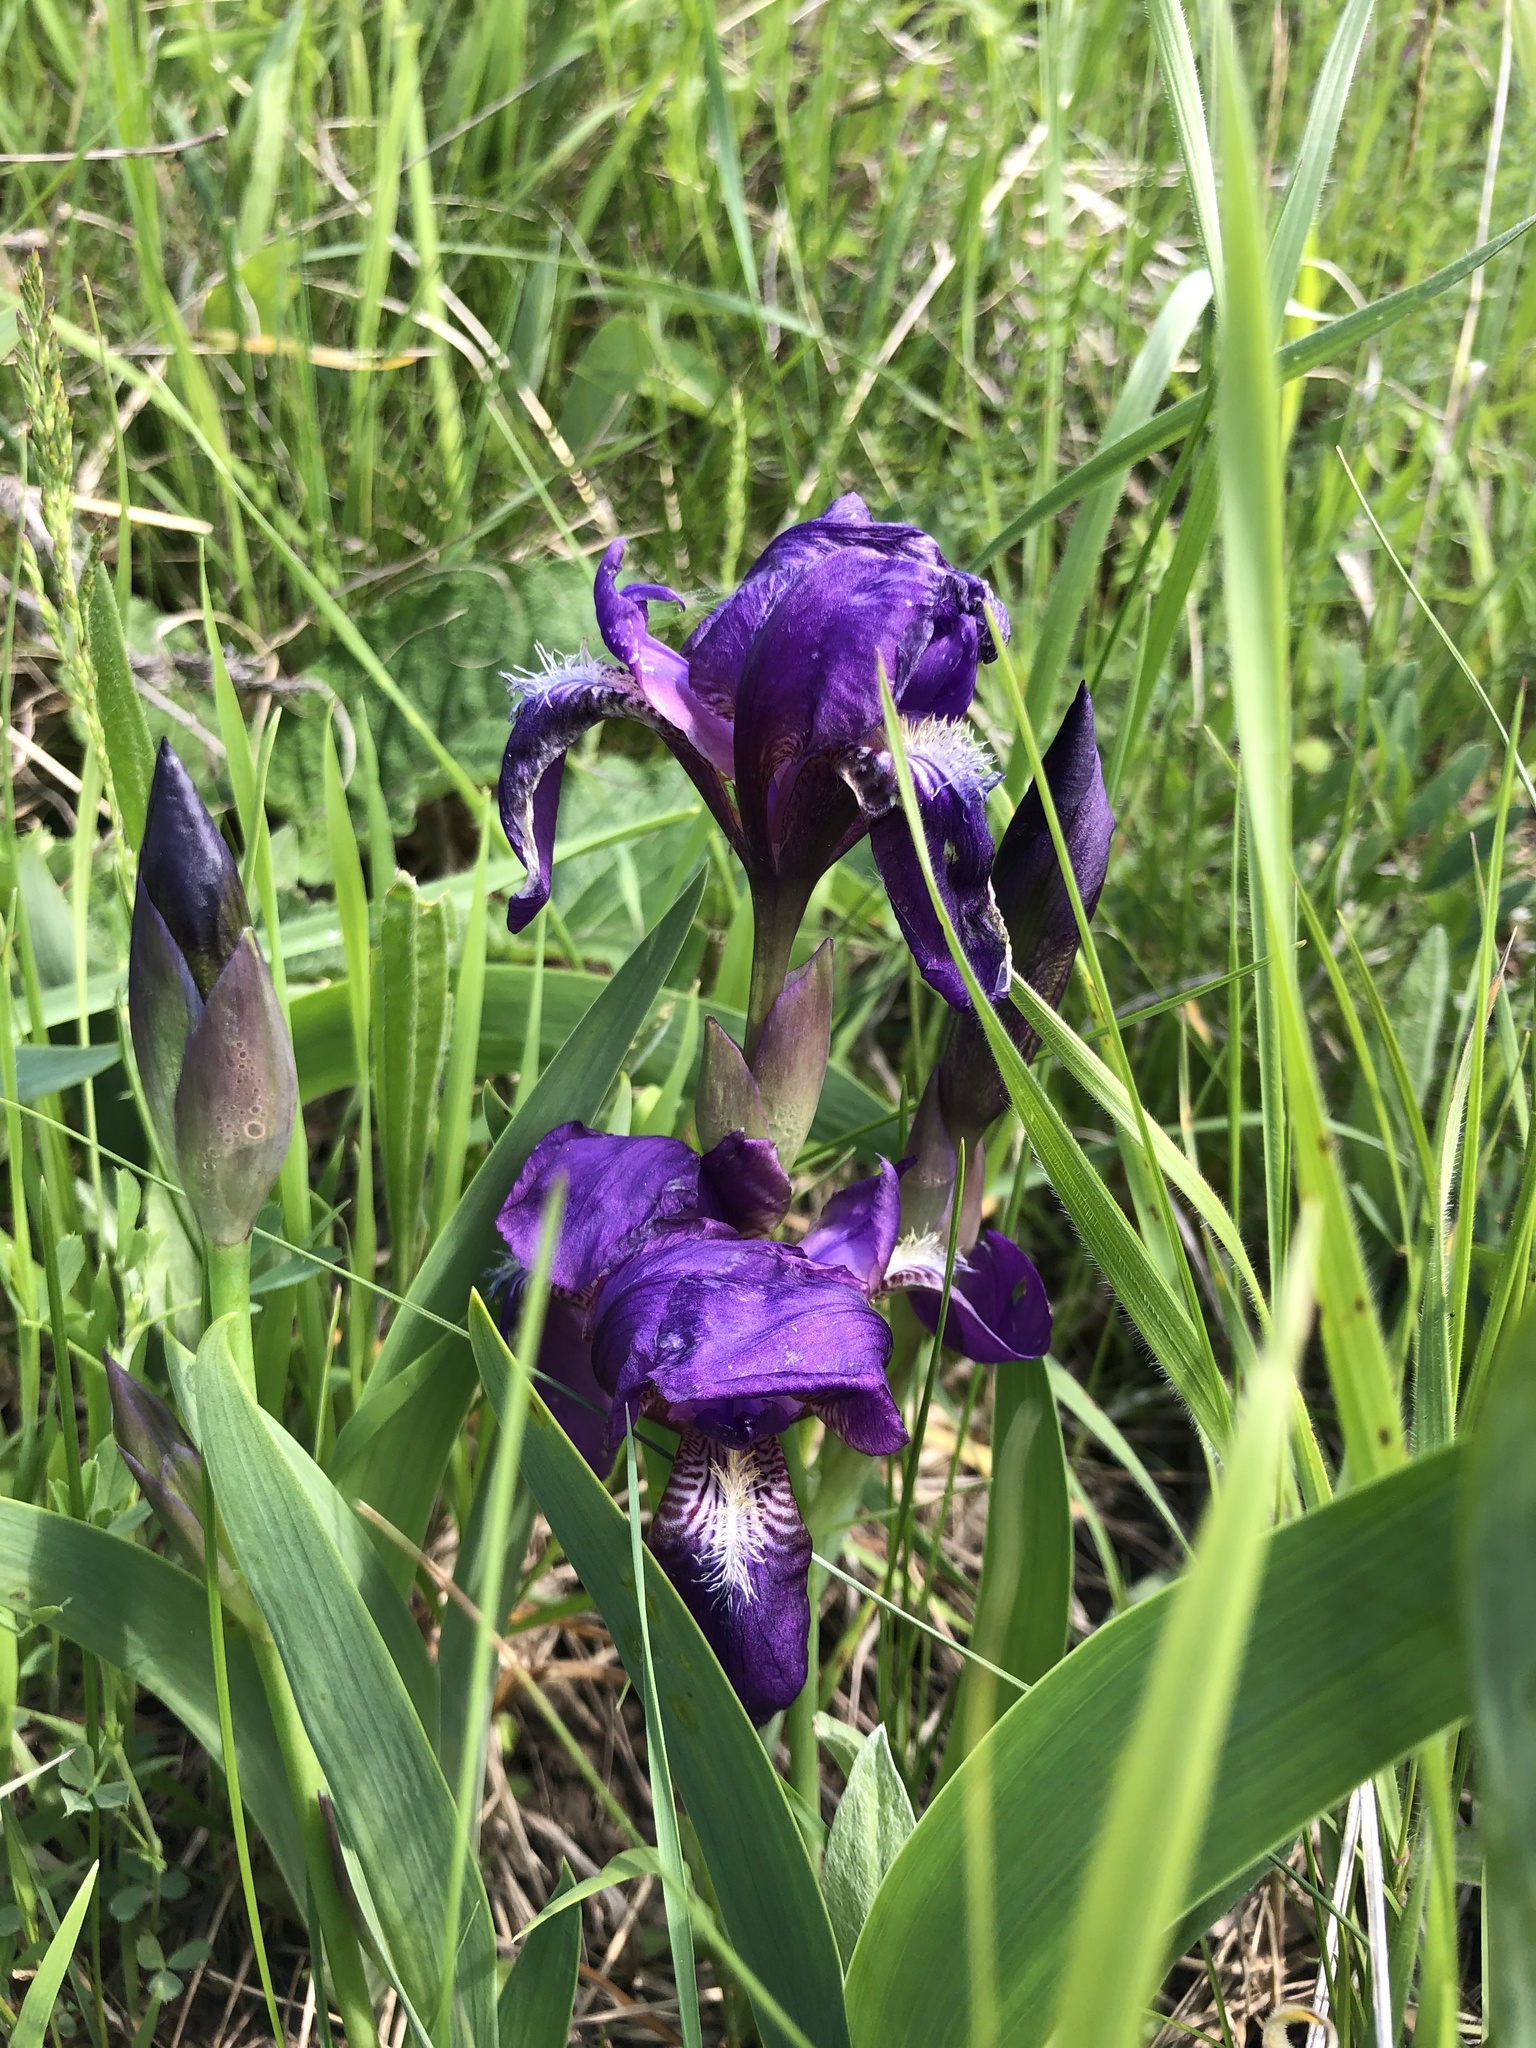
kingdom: Plantae
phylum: Tracheophyta
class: Liliopsida
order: Asparagales
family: Iridaceae
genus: Iris
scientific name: Iris aphylla
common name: Stool iris
